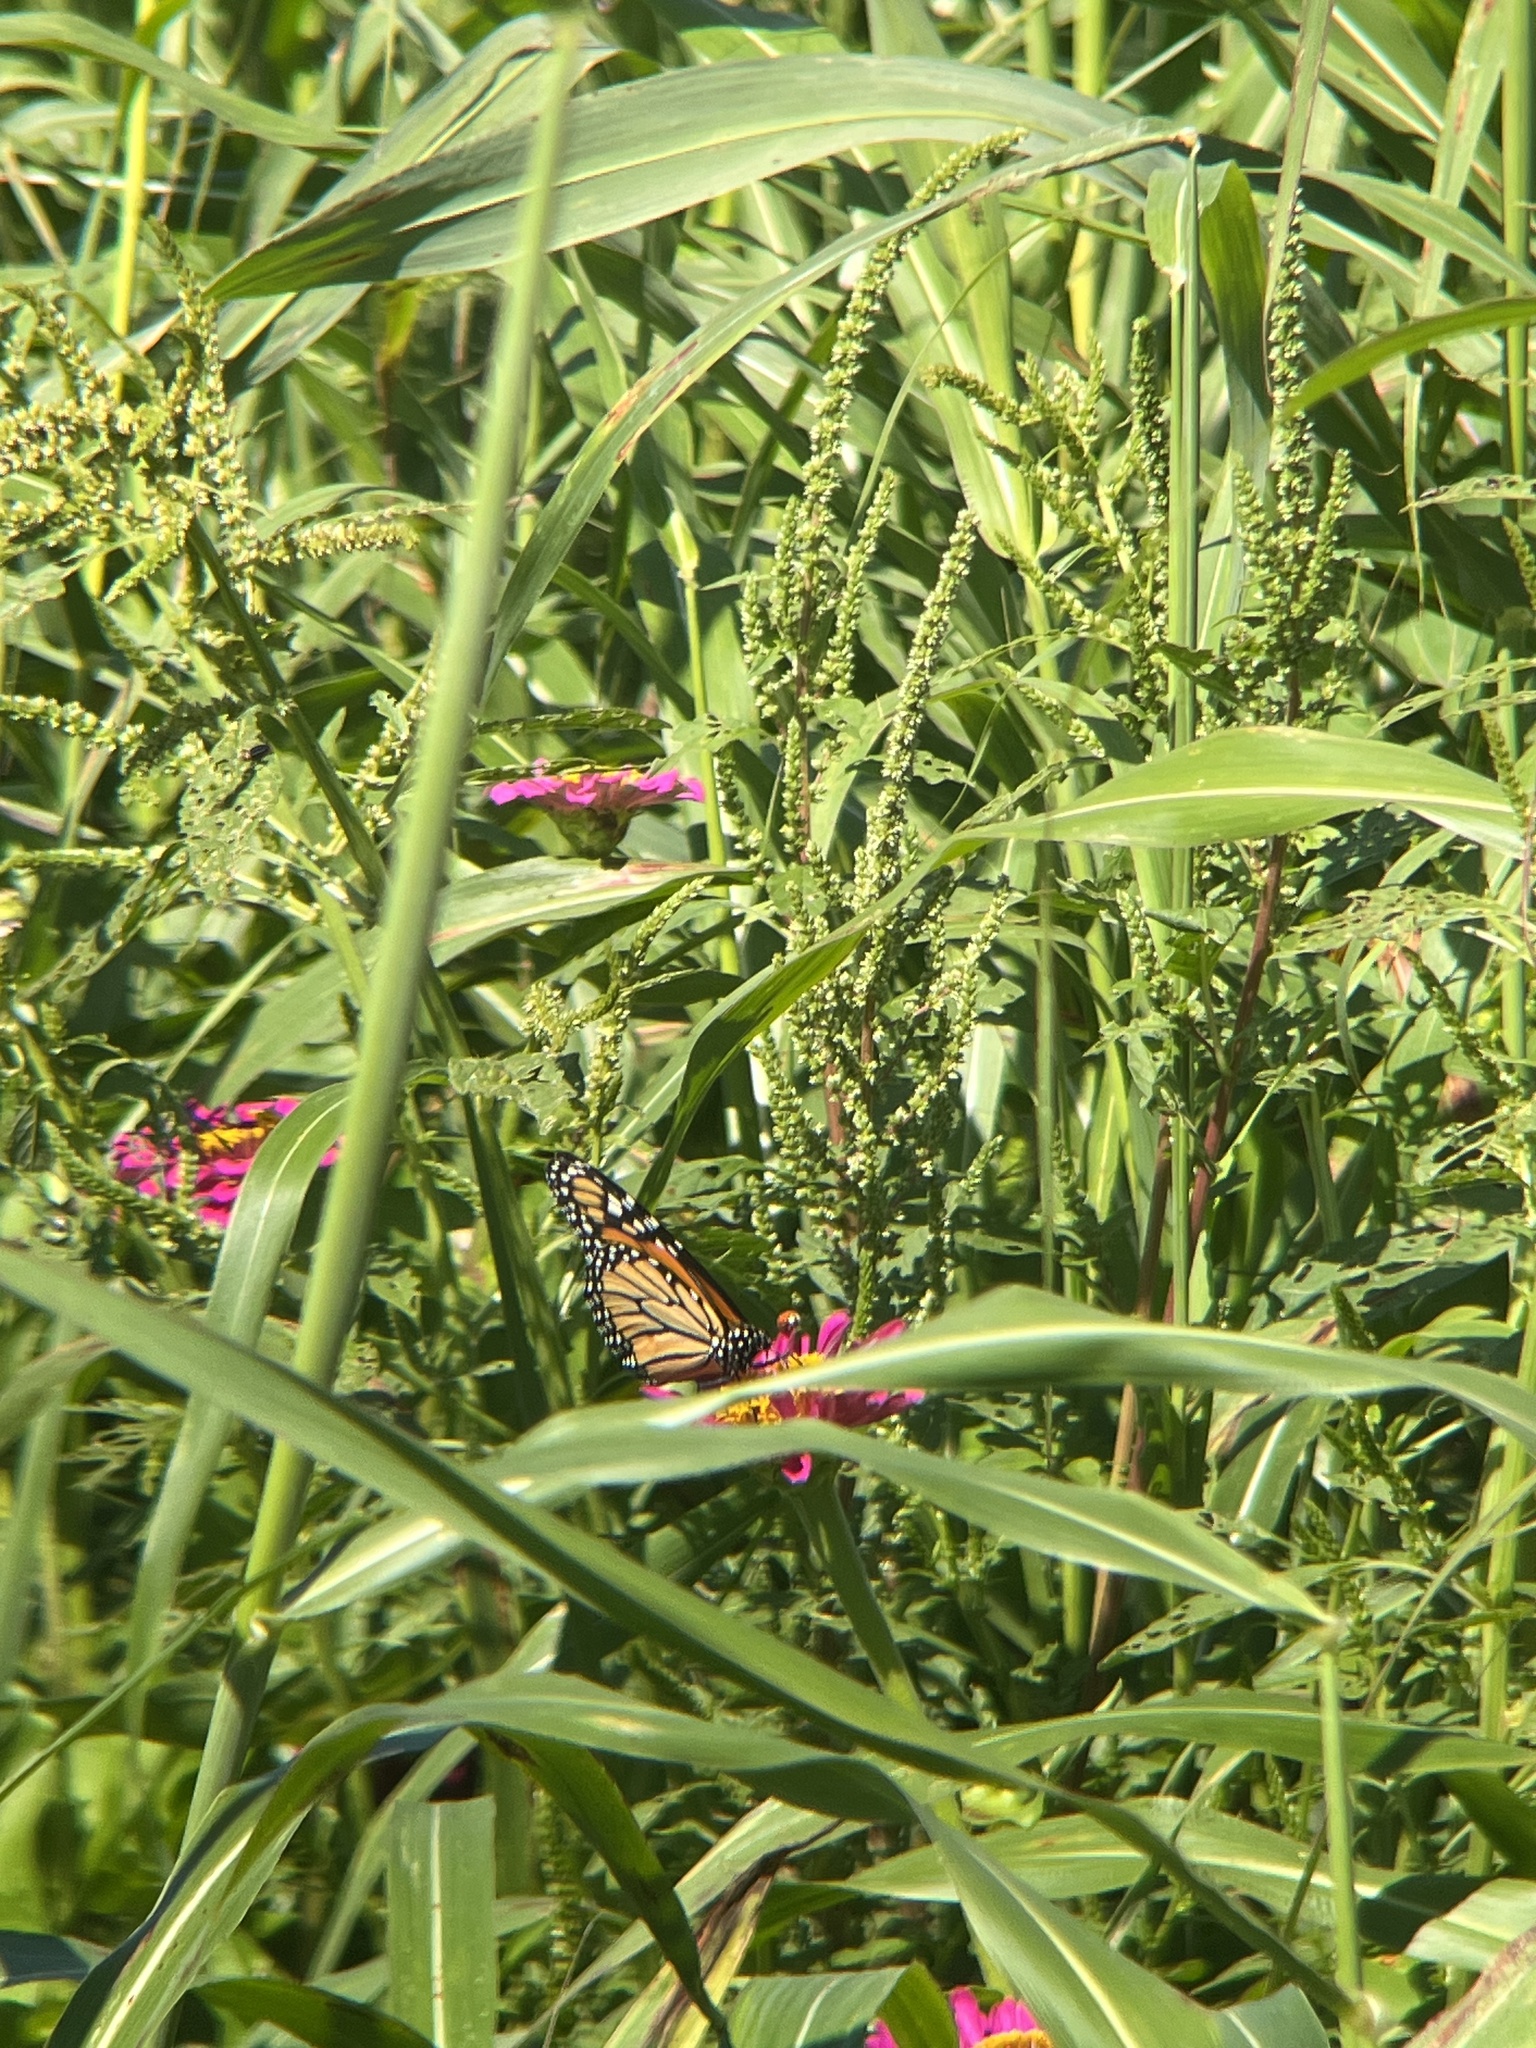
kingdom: Animalia
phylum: Arthropoda
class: Insecta
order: Lepidoptera
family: Nymphalidae
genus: Danaus
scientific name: Danaus plexippus
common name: Monarch
